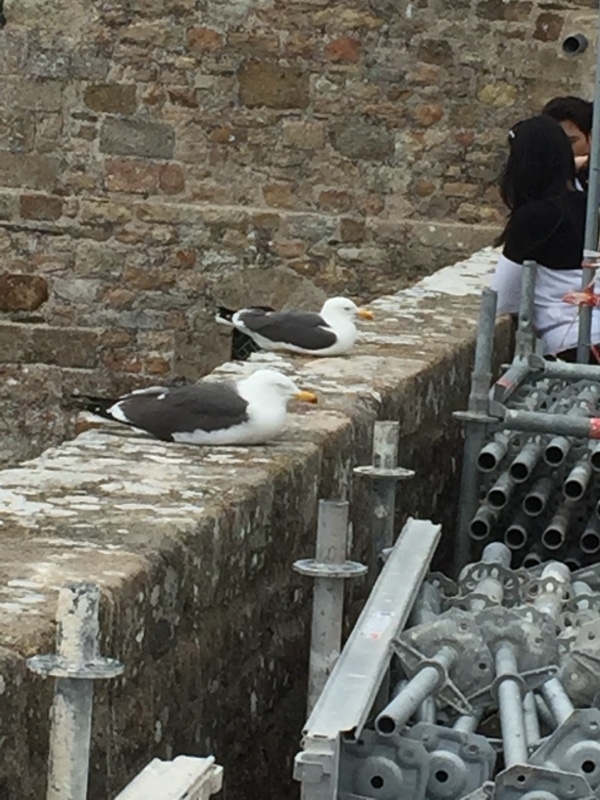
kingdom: Animalia
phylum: Chordata
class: Aves
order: Charadriiformes
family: Laridae
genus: Larus
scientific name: Larus fuscus
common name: Lesser black-backed gull
